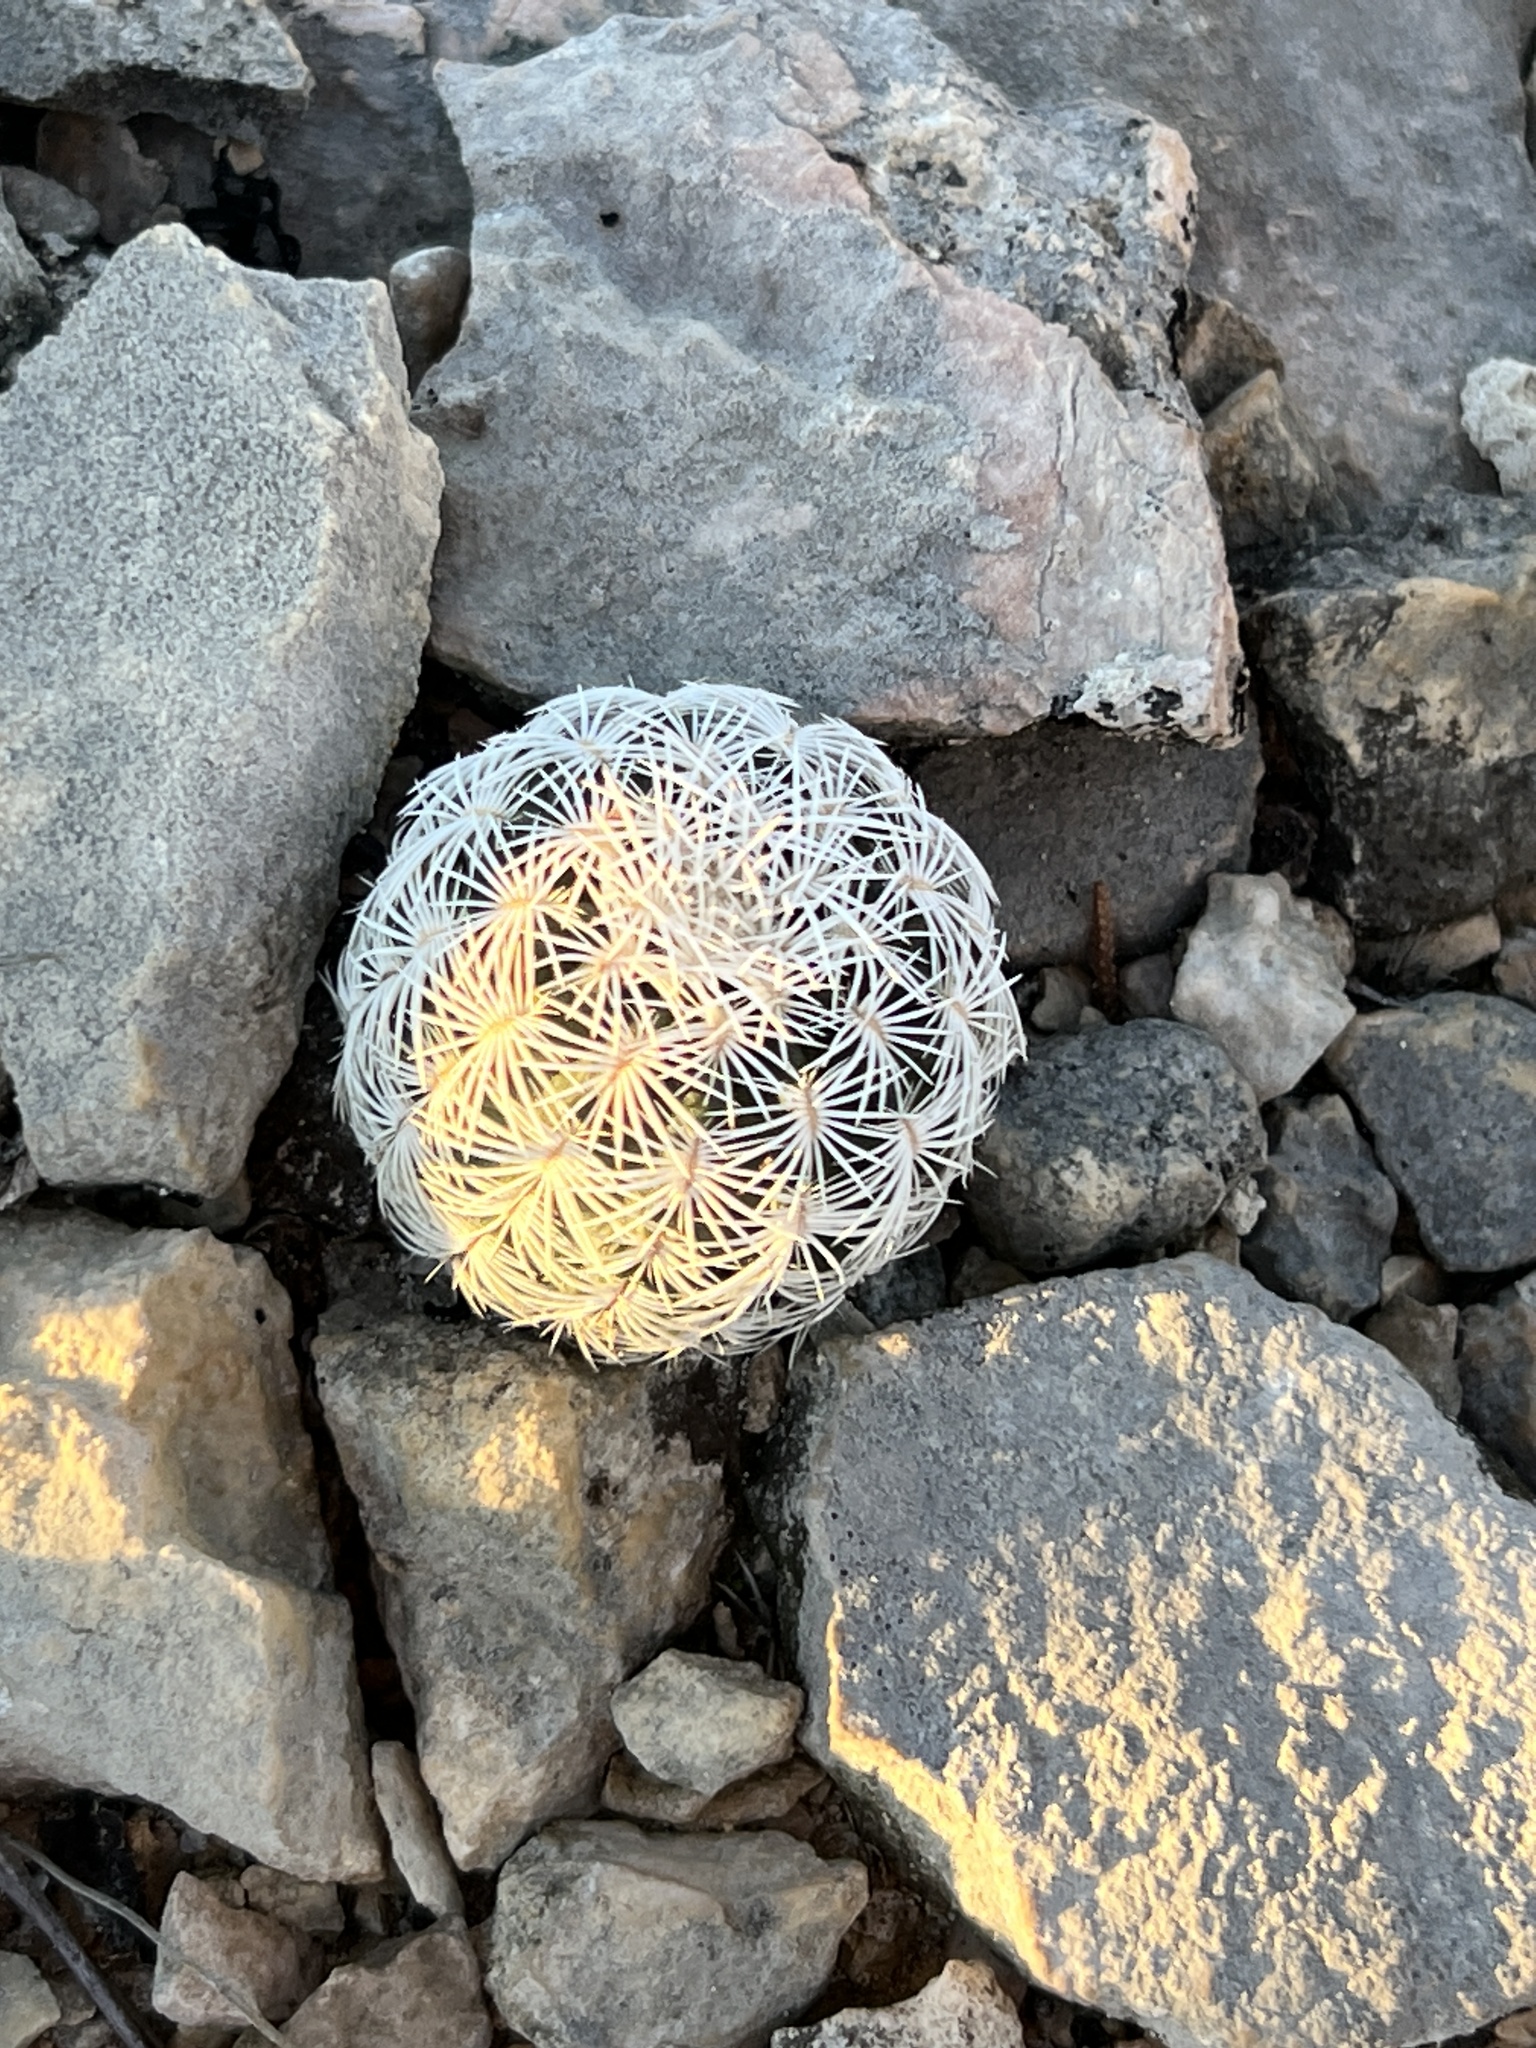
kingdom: Plantae
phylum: Tracheophyta
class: Magnoliopsida
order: Caryophyllales
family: Cactaceae
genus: Echinocereus
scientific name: Echinocereus reichenbachii
